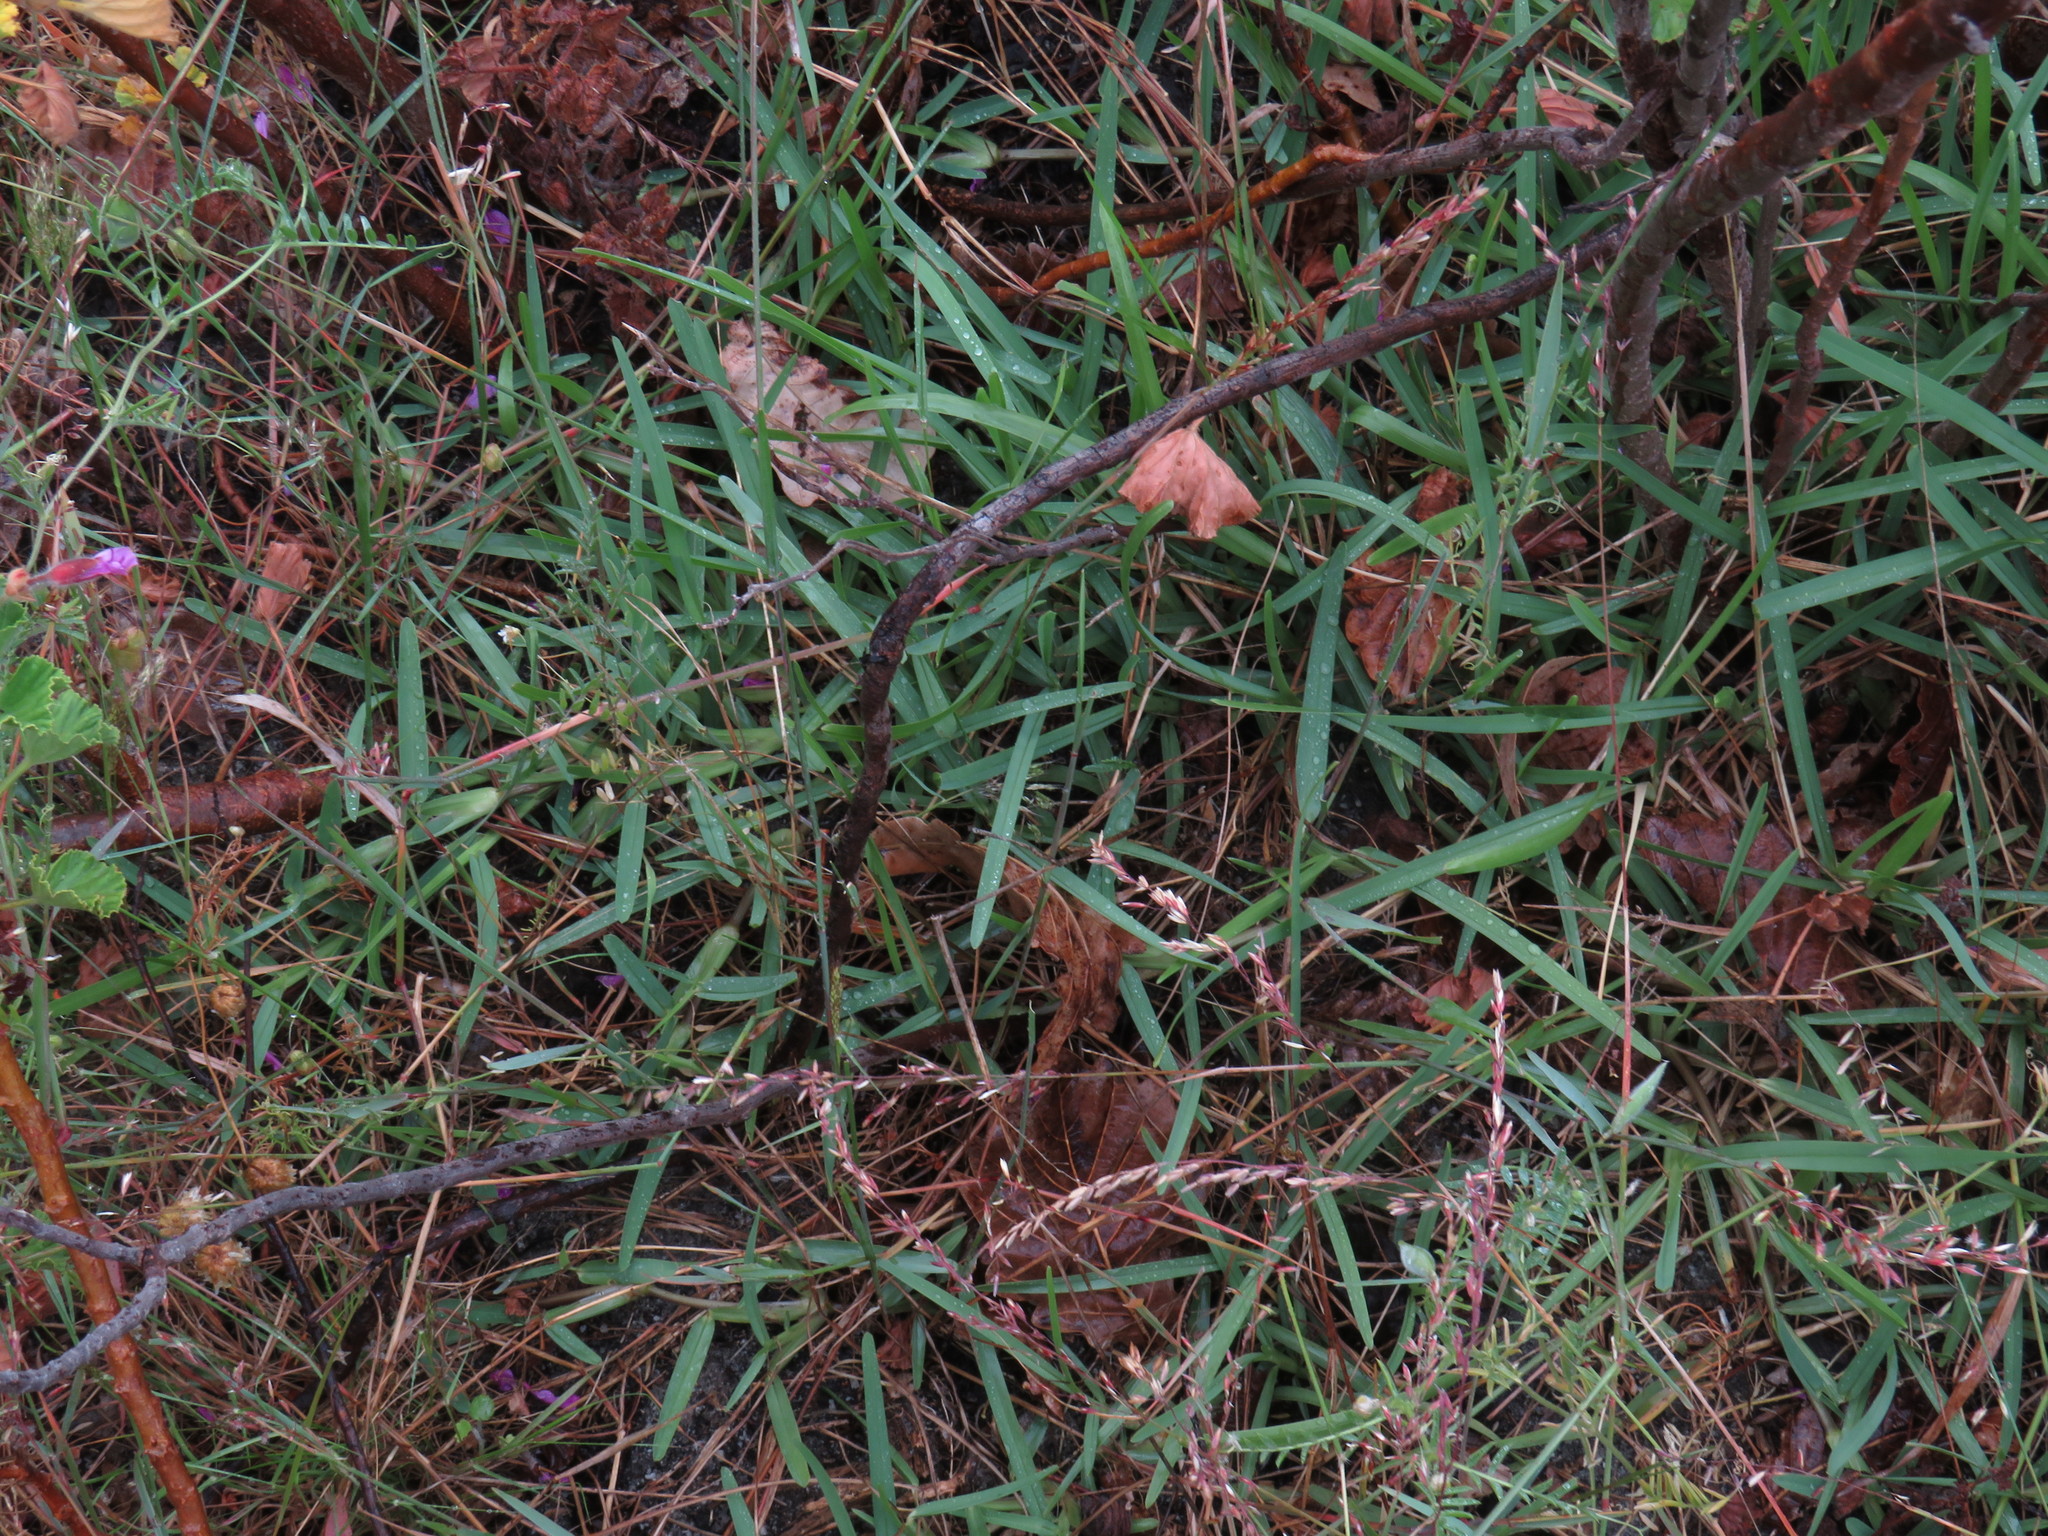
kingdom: Plantae
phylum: Tracheophyta
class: Liliopsida
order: Poales
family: Poaceae
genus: Stenotaphrum
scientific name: Stenotaphrum secundatum
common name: St. augustine grass
